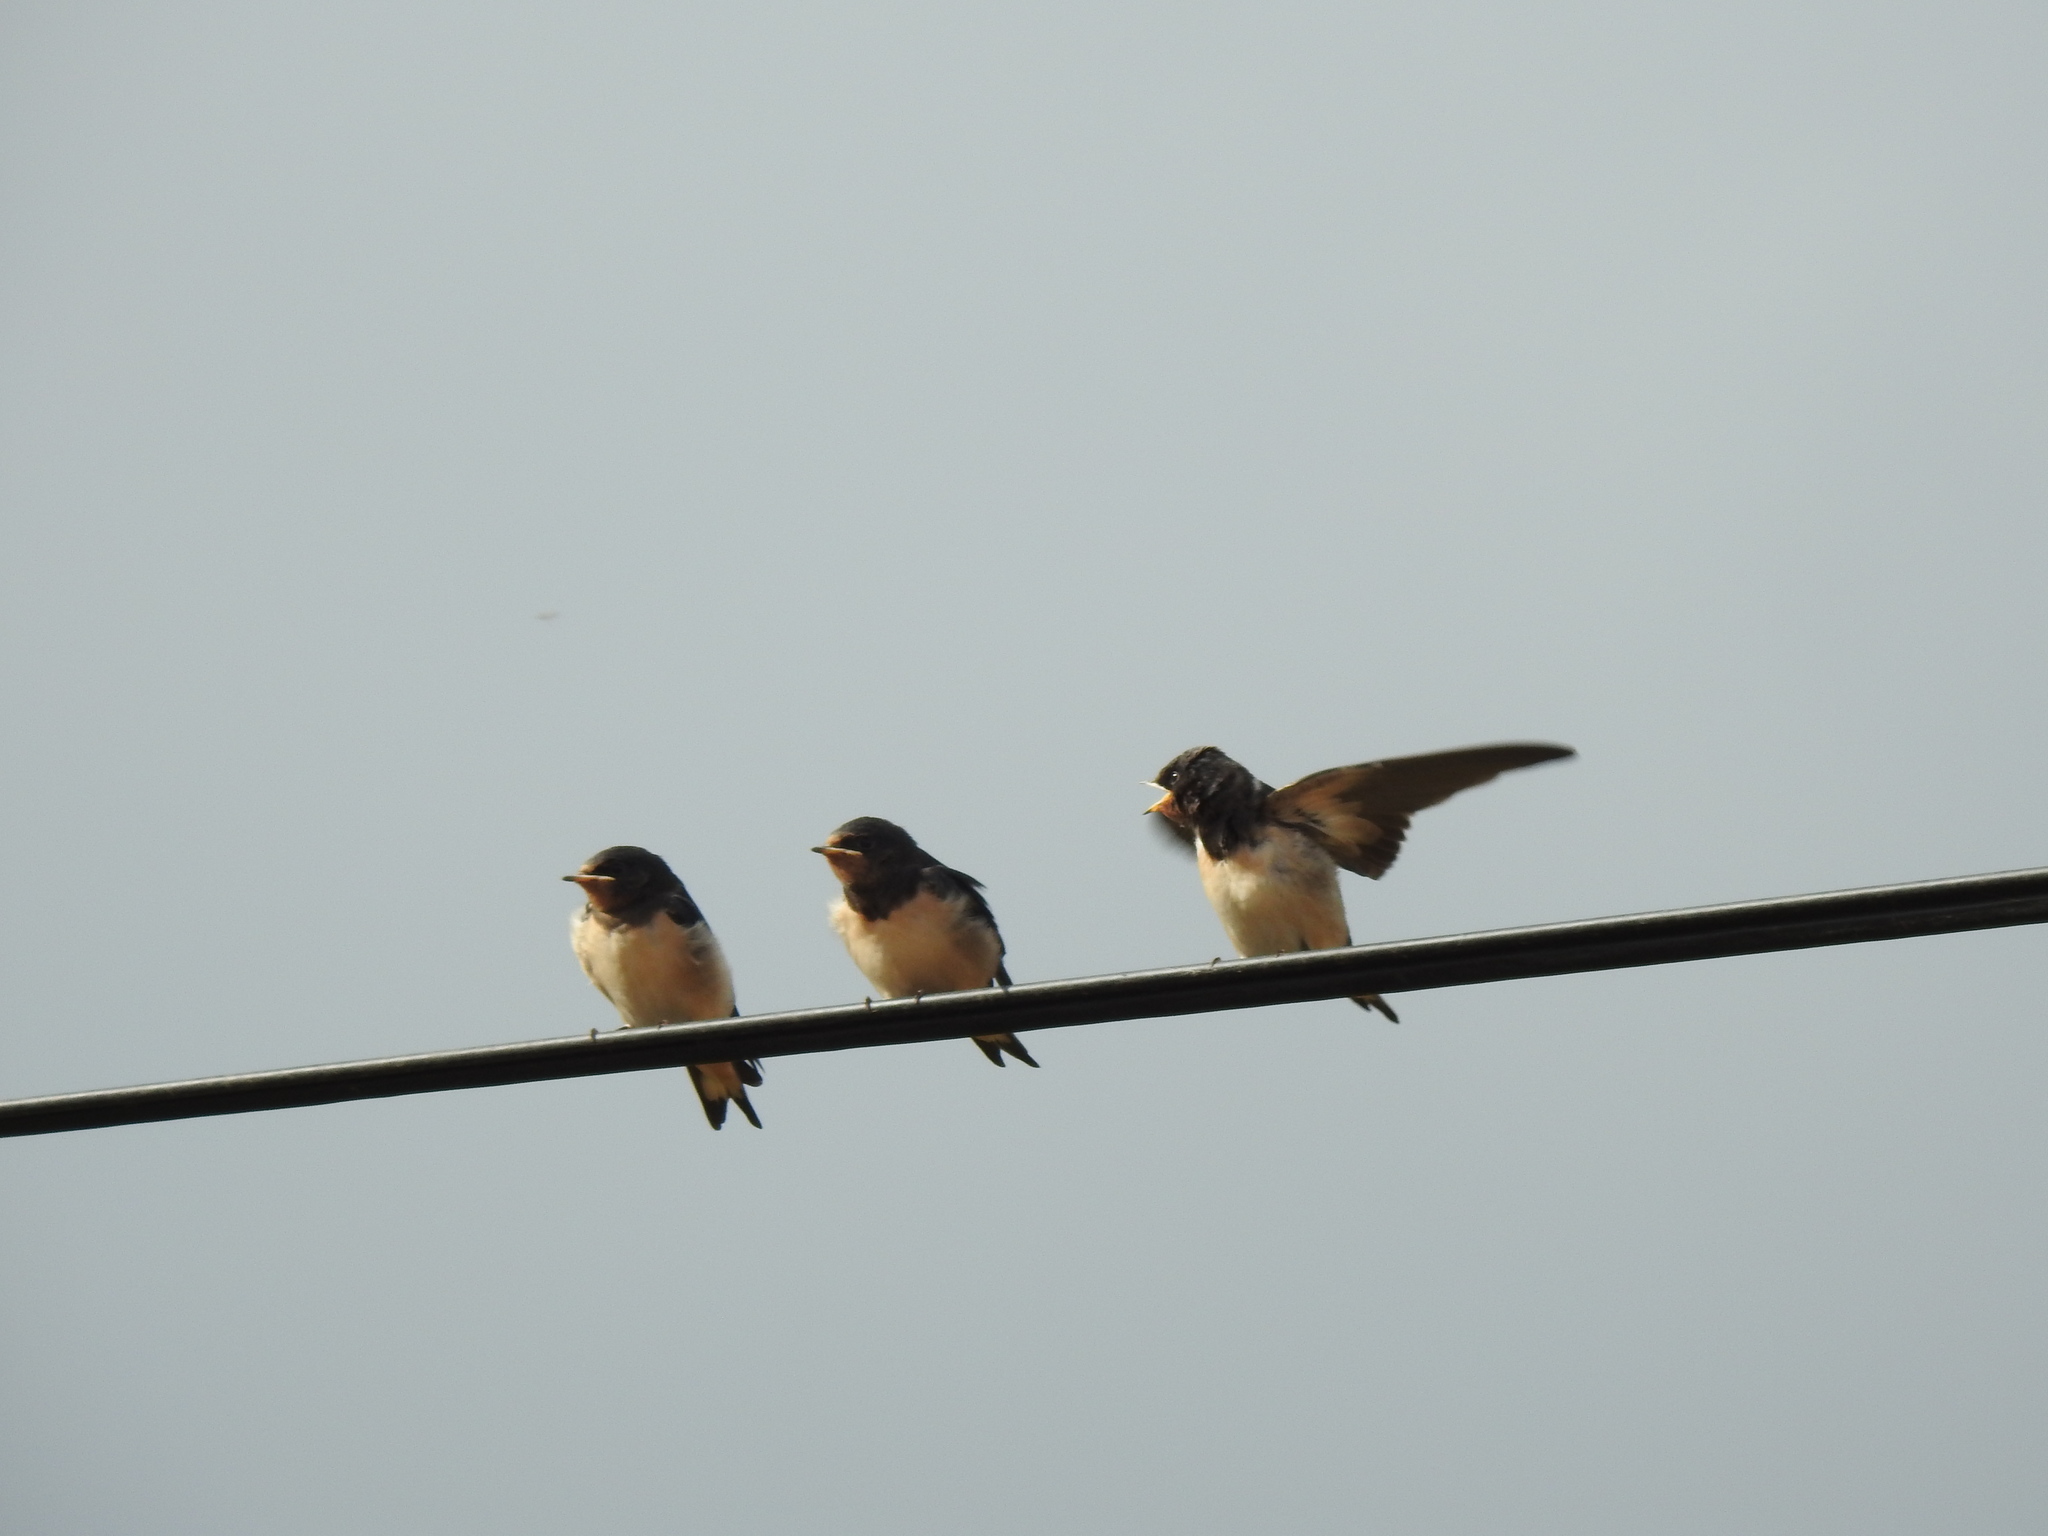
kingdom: Animalia
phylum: Chordata
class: Aves
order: Passeriformes
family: Hirundinidae
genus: Hirundo
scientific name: Hirundo rustica
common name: Barn swallow
